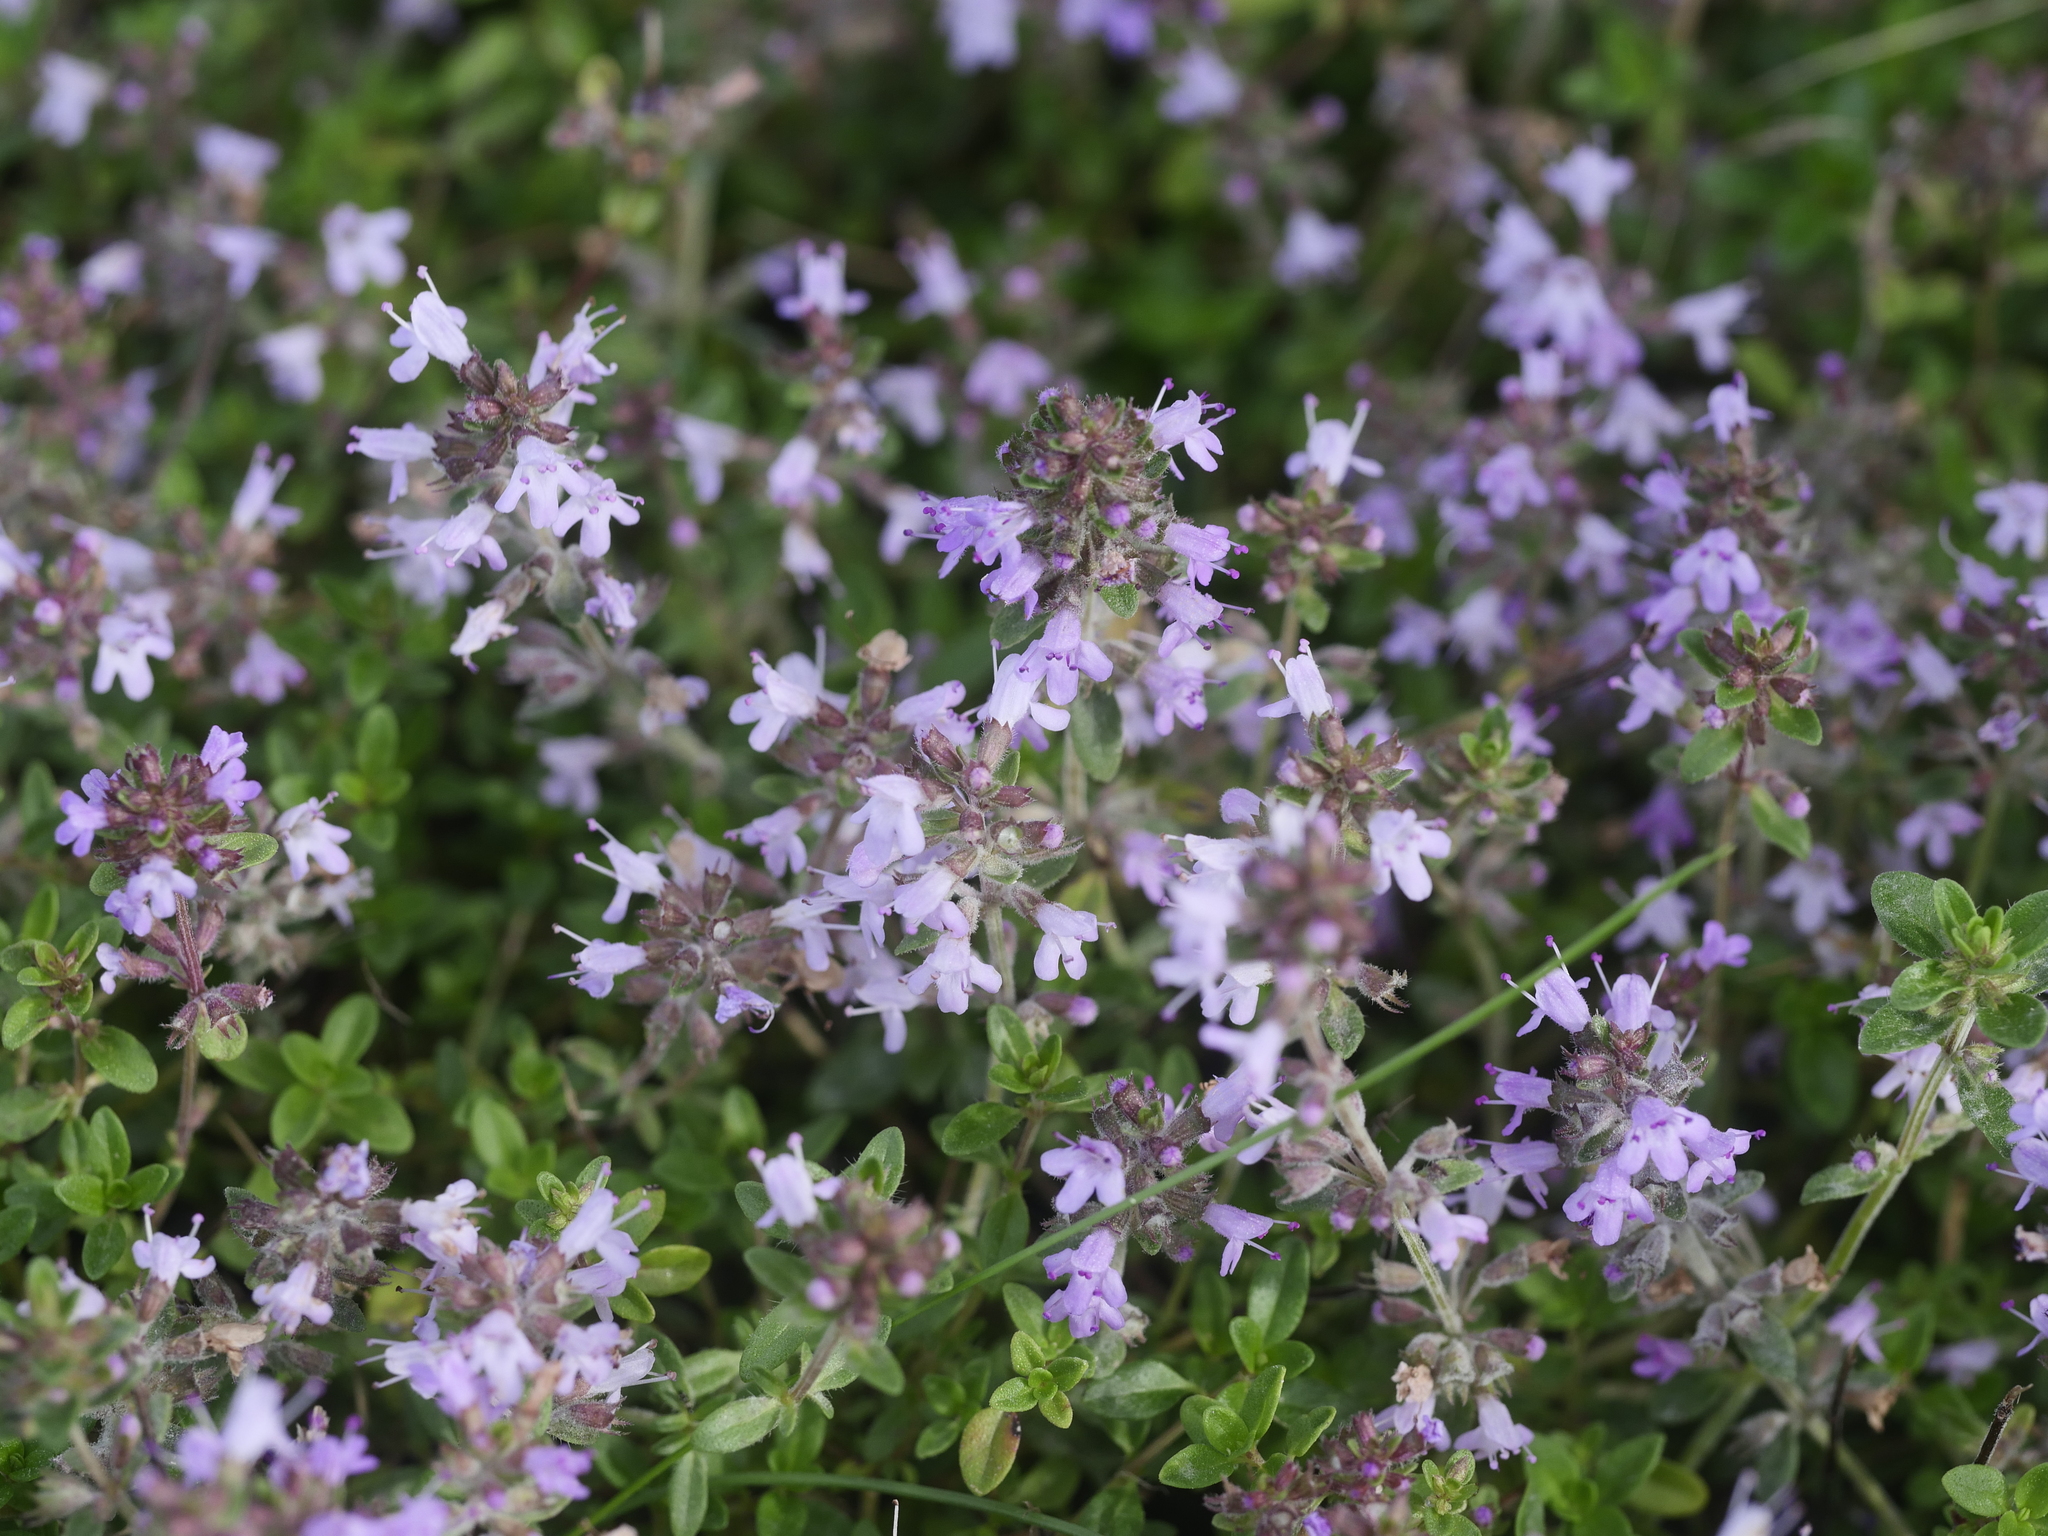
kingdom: Plantae
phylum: Tracheophyta
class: Magnoliopsida
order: Lamiales
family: Lamiaceae
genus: Thymus
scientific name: Thymus pulegioides
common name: Large thyme
